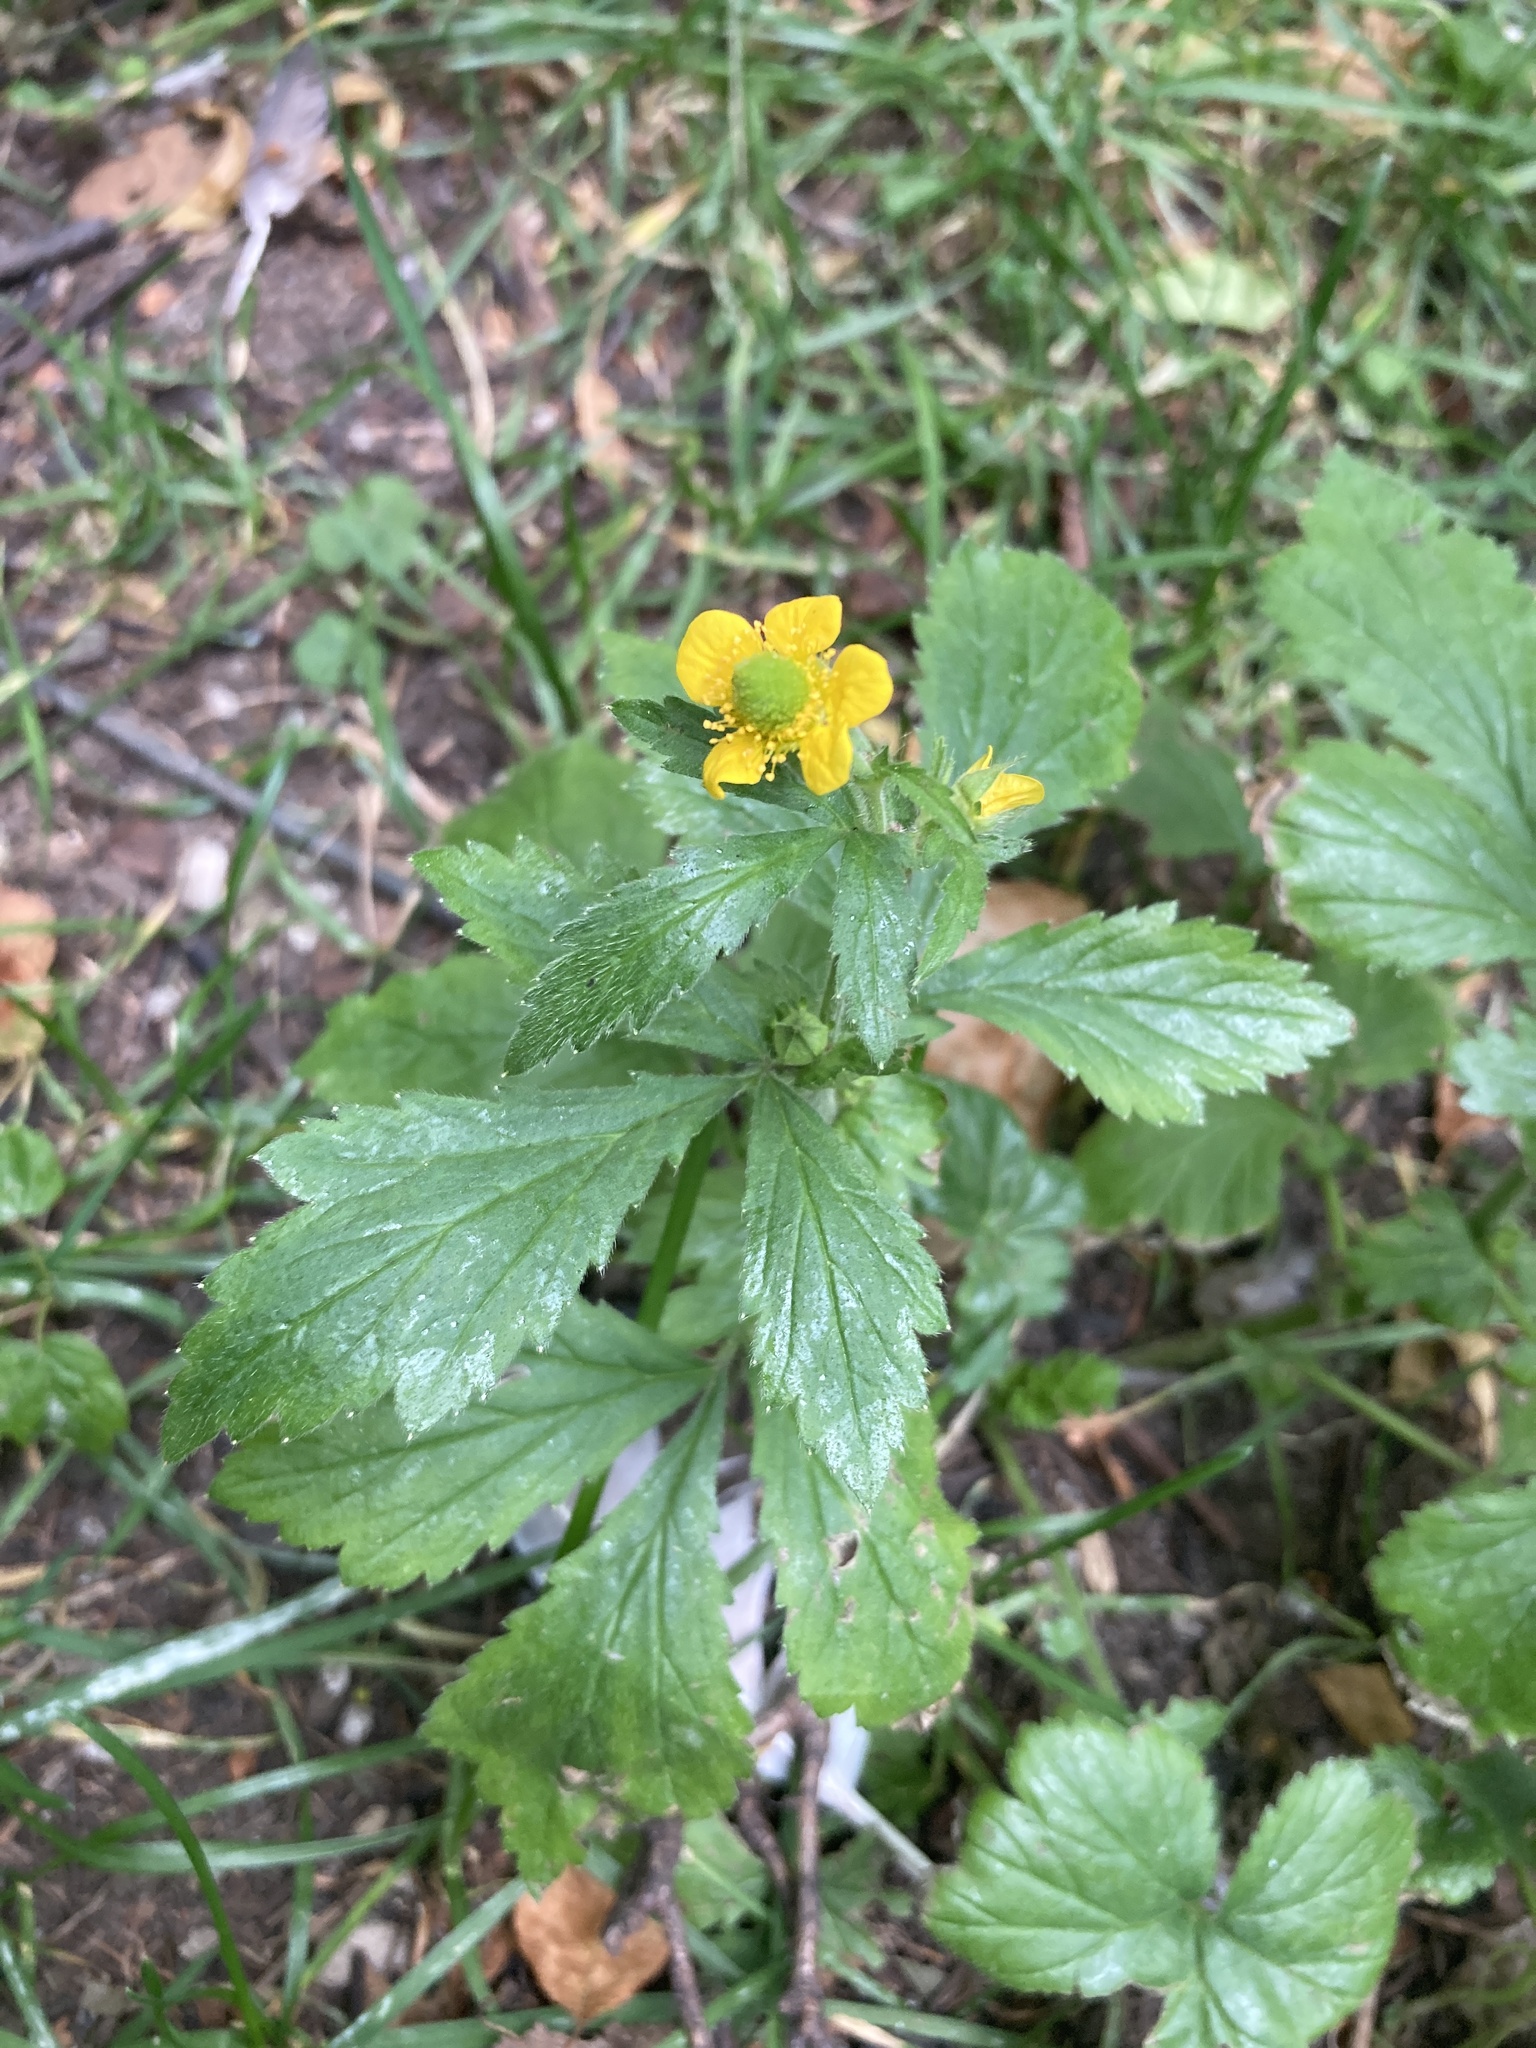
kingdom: Plantae
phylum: Tracheophyta
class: Magnoliopsida
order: Rosales
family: Rosaceae
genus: Geum
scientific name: Geum aleppicum
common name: Yellow avens
